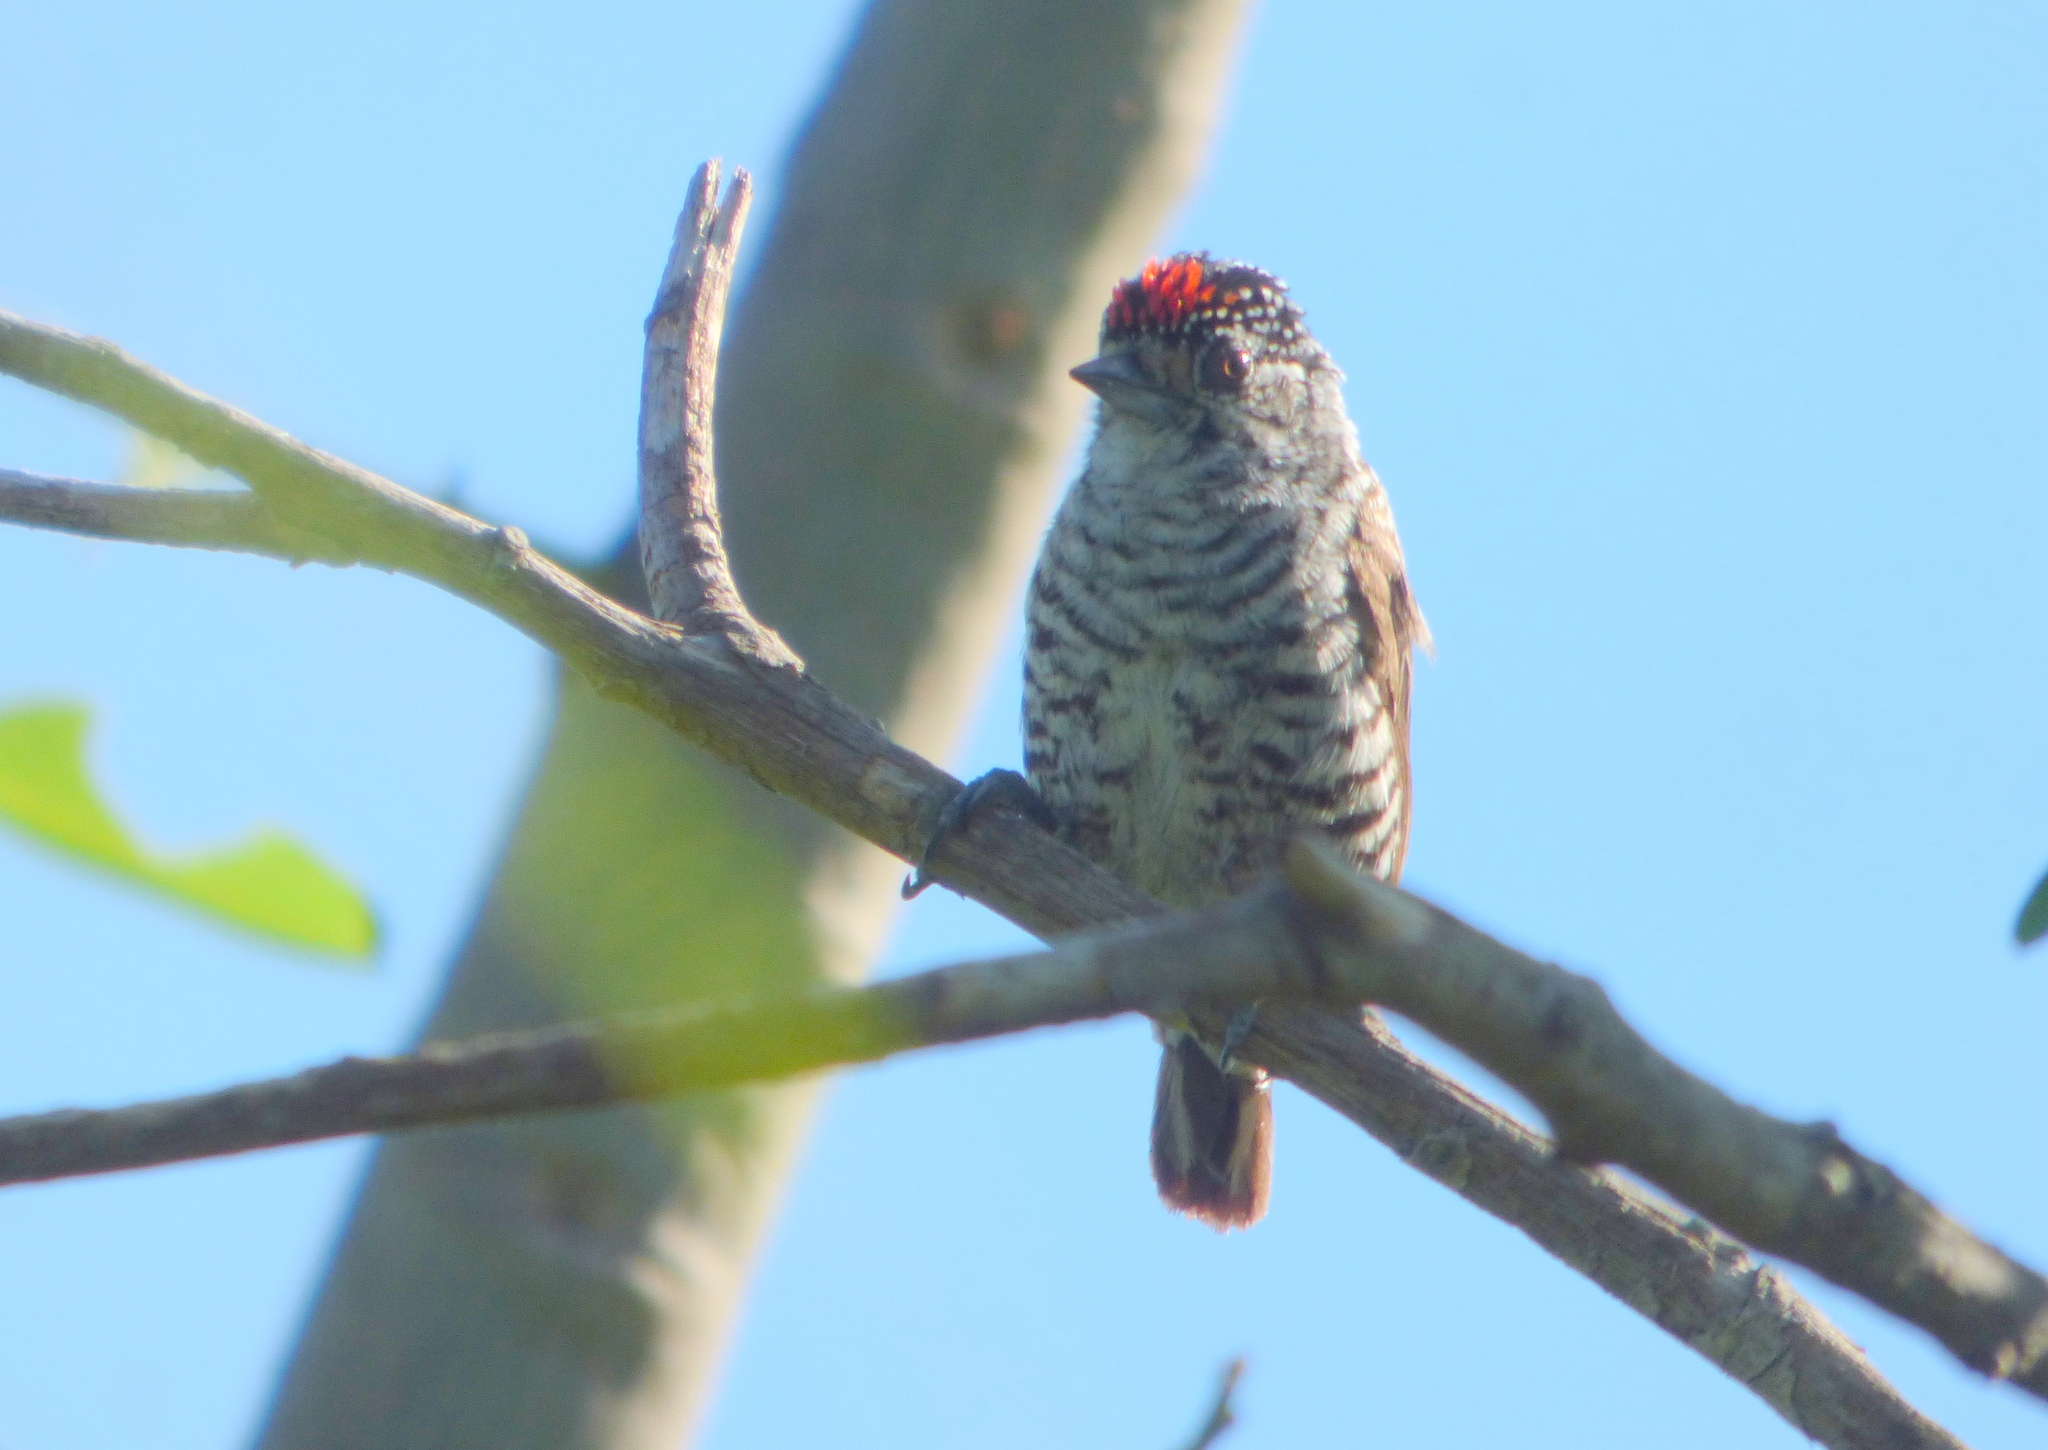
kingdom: Animalia
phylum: Chordata
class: Aves
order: Piciformes
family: Picidae
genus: Picumnus
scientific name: Picumnus cirratus
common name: White-barred piculet
